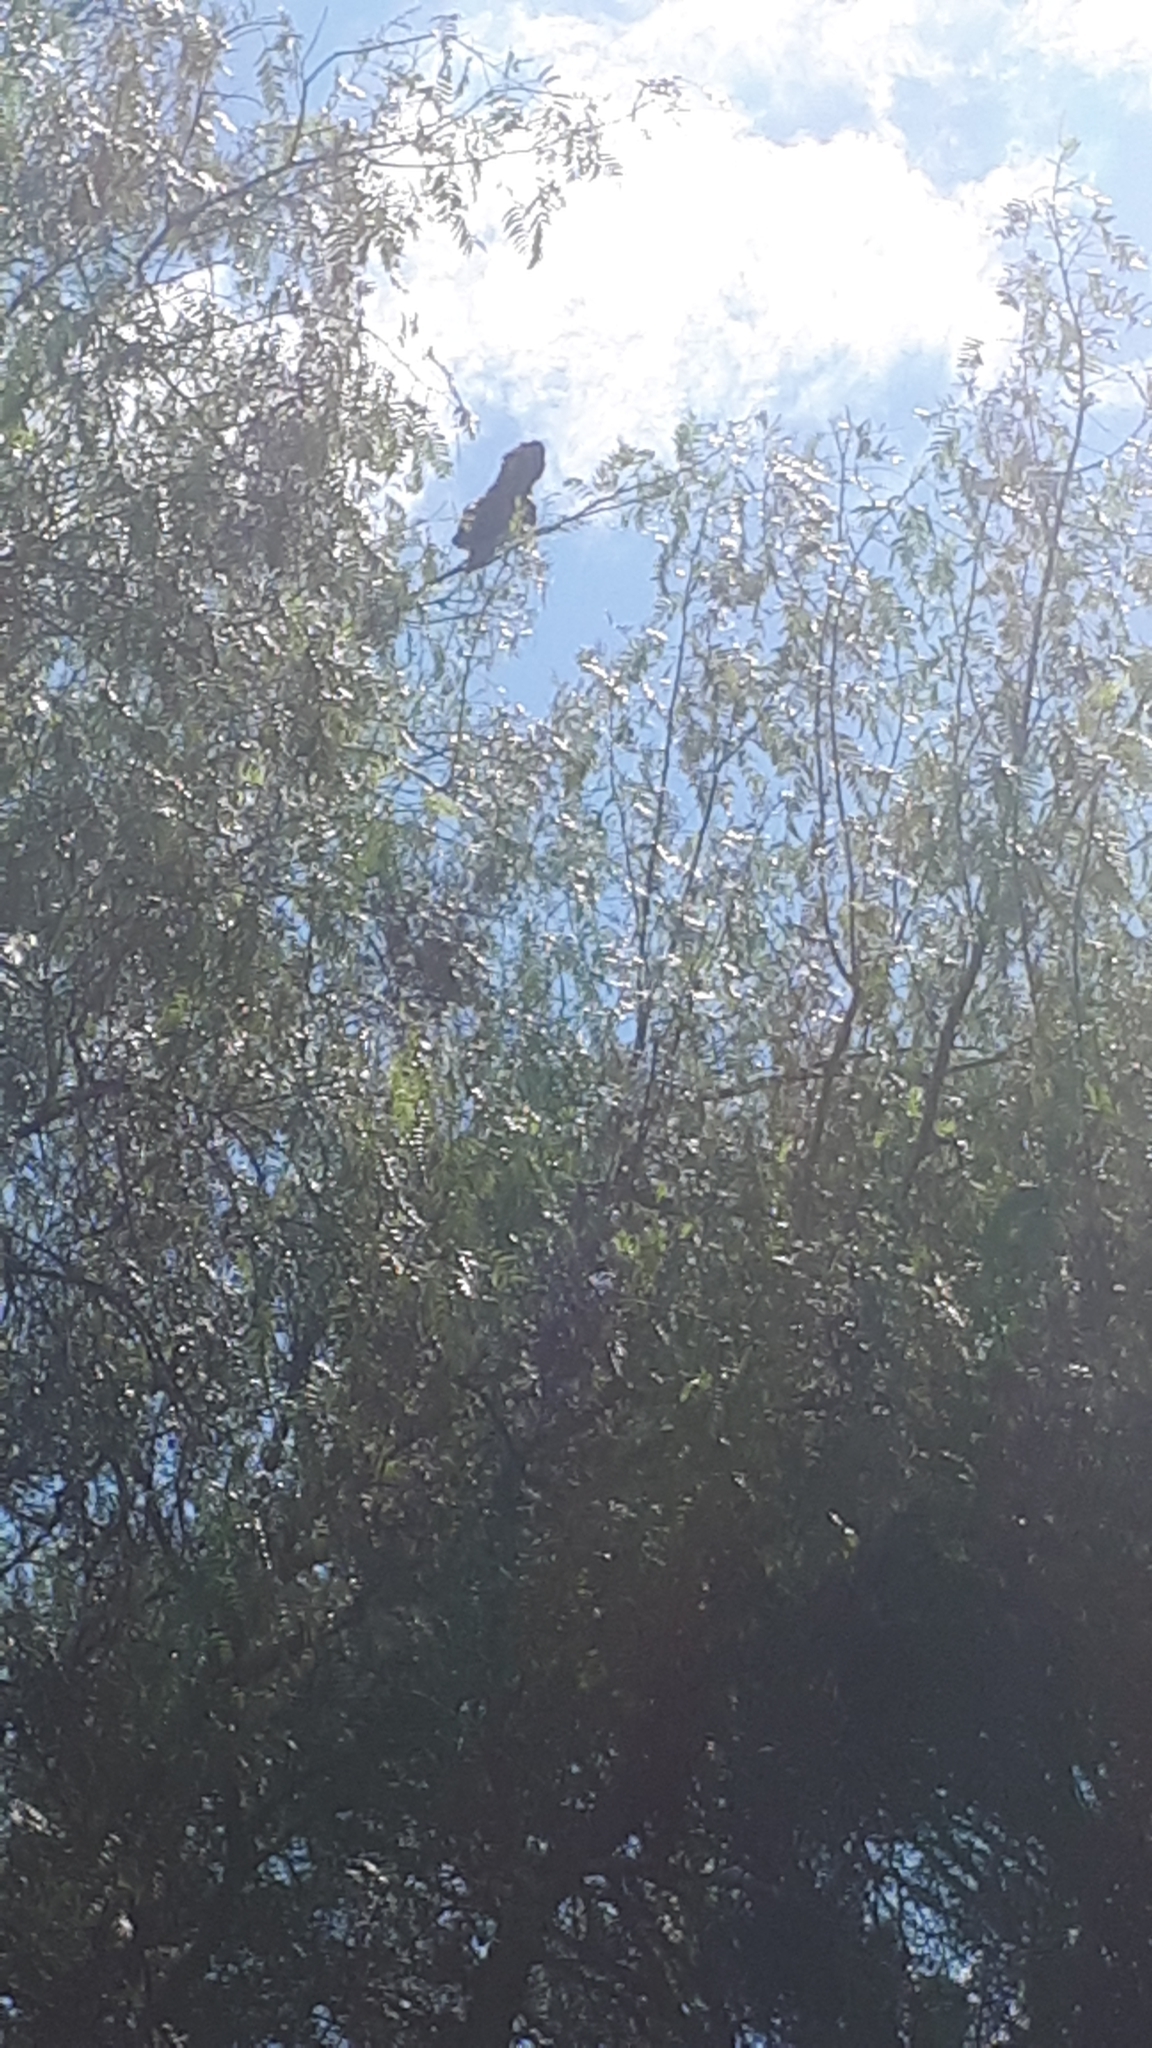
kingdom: Animalia
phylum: Chordata
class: Aves
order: Psittaciformes
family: Cacatuidae
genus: Zanda
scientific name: Zanda funerea
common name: Yellow-tailed black-cockatoo
